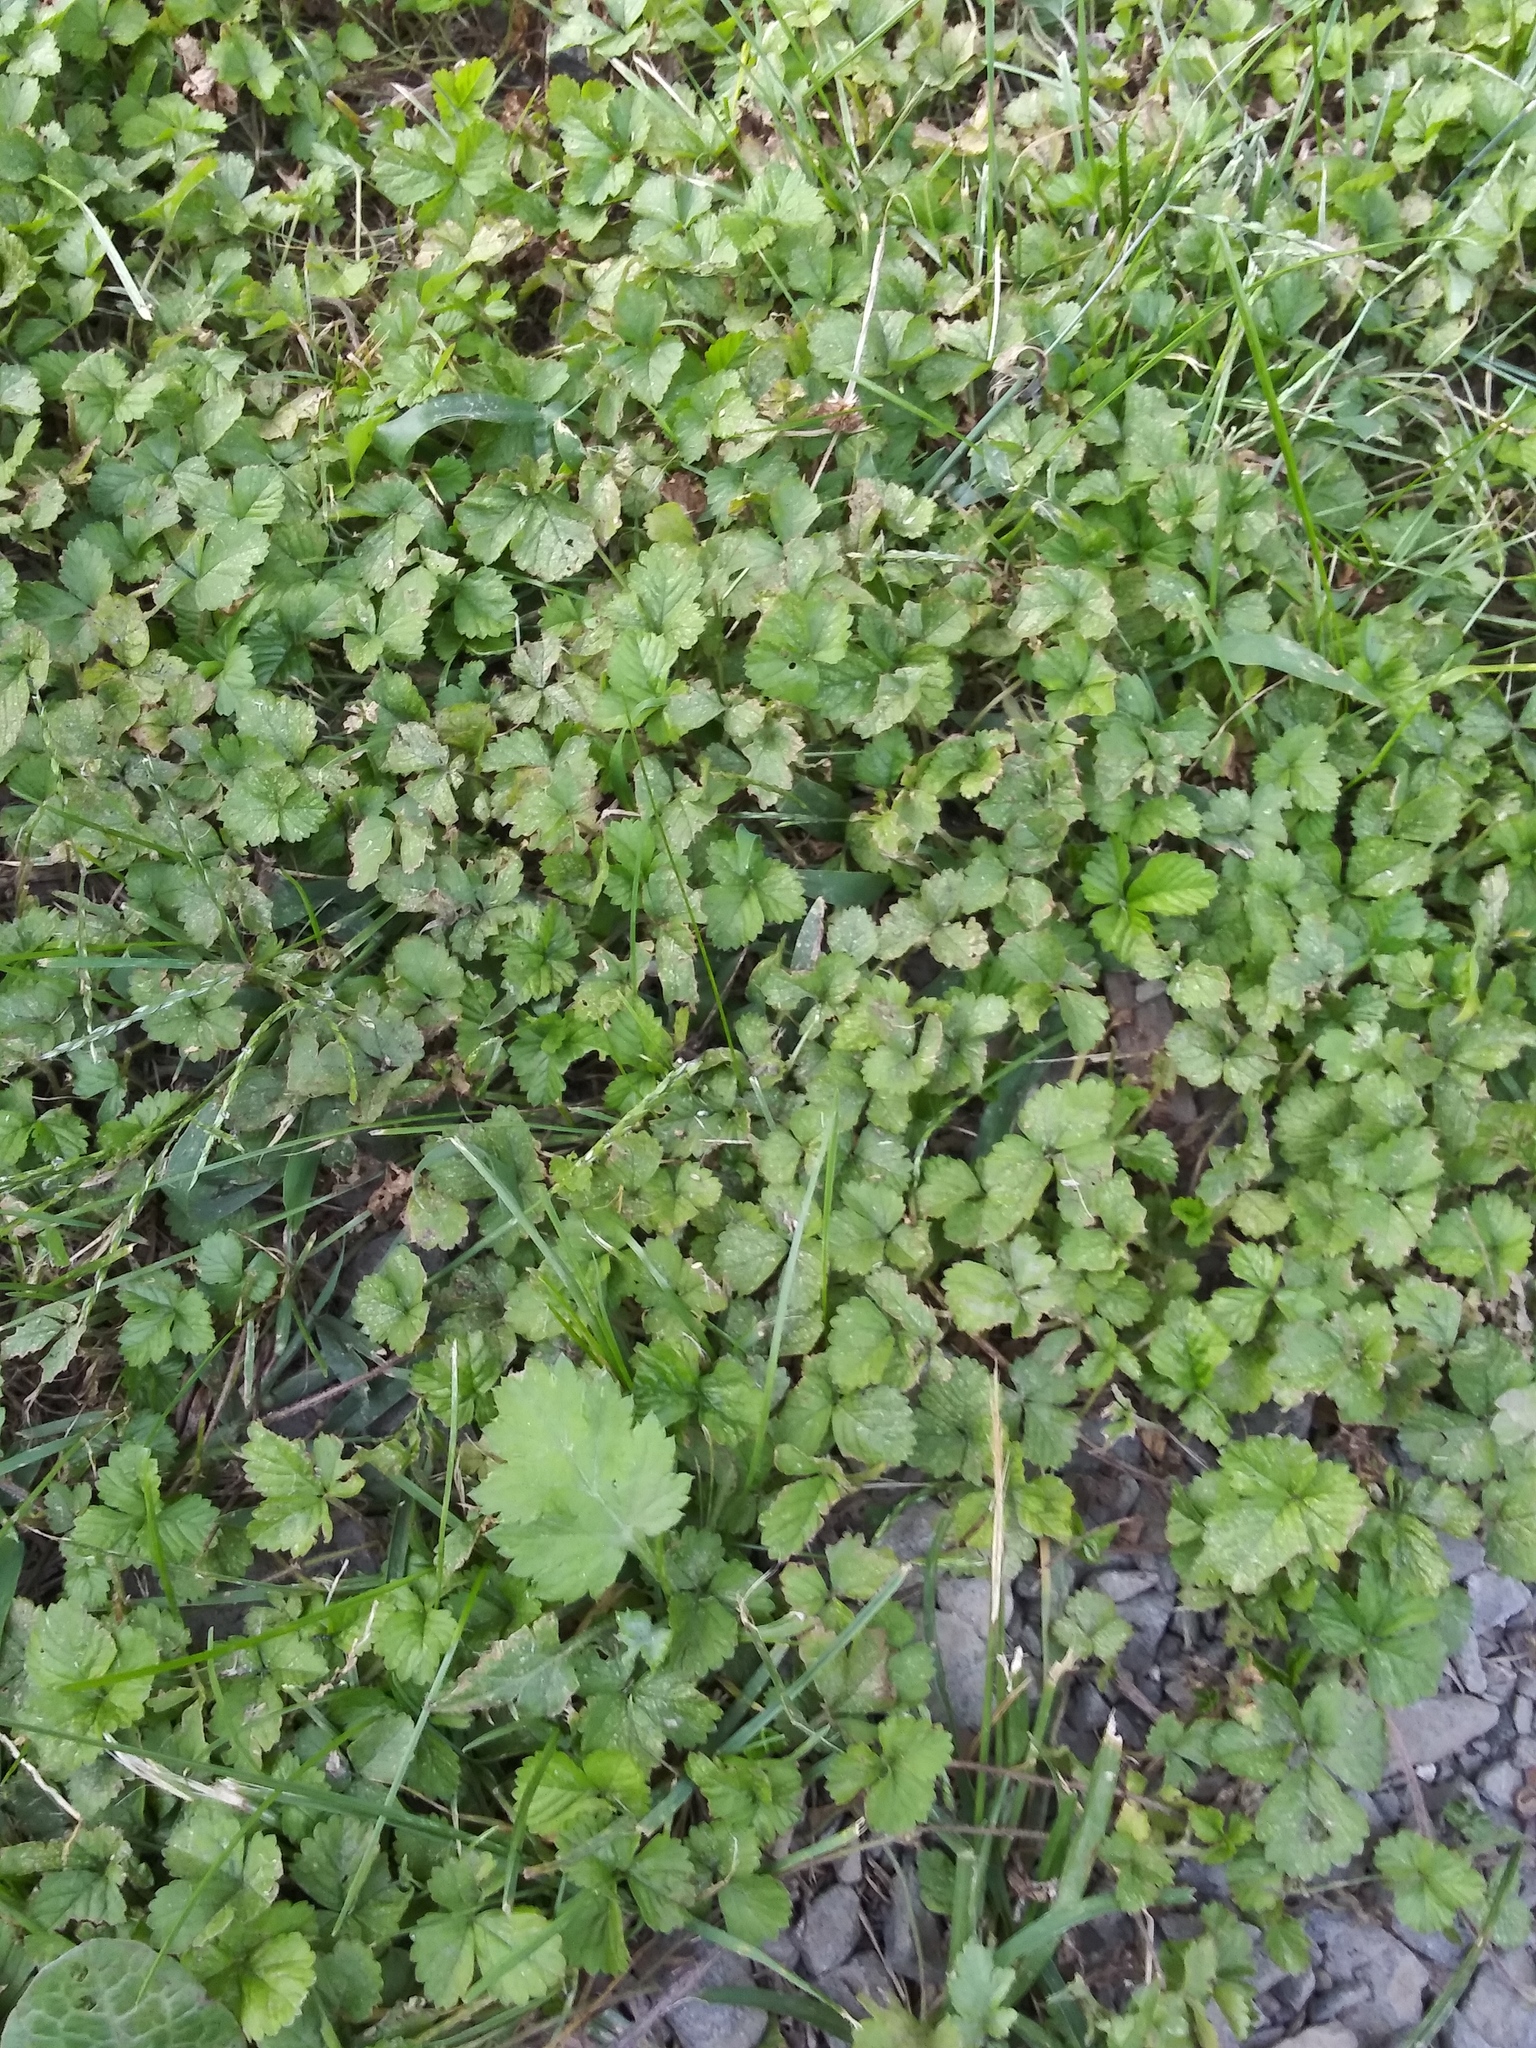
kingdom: Plantae
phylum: Tracheophyta
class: Magnoliopsida
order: Rosales
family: Rosaceae
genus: Potentilla
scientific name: Potentilla indica
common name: Yellow-flowered strawberry
